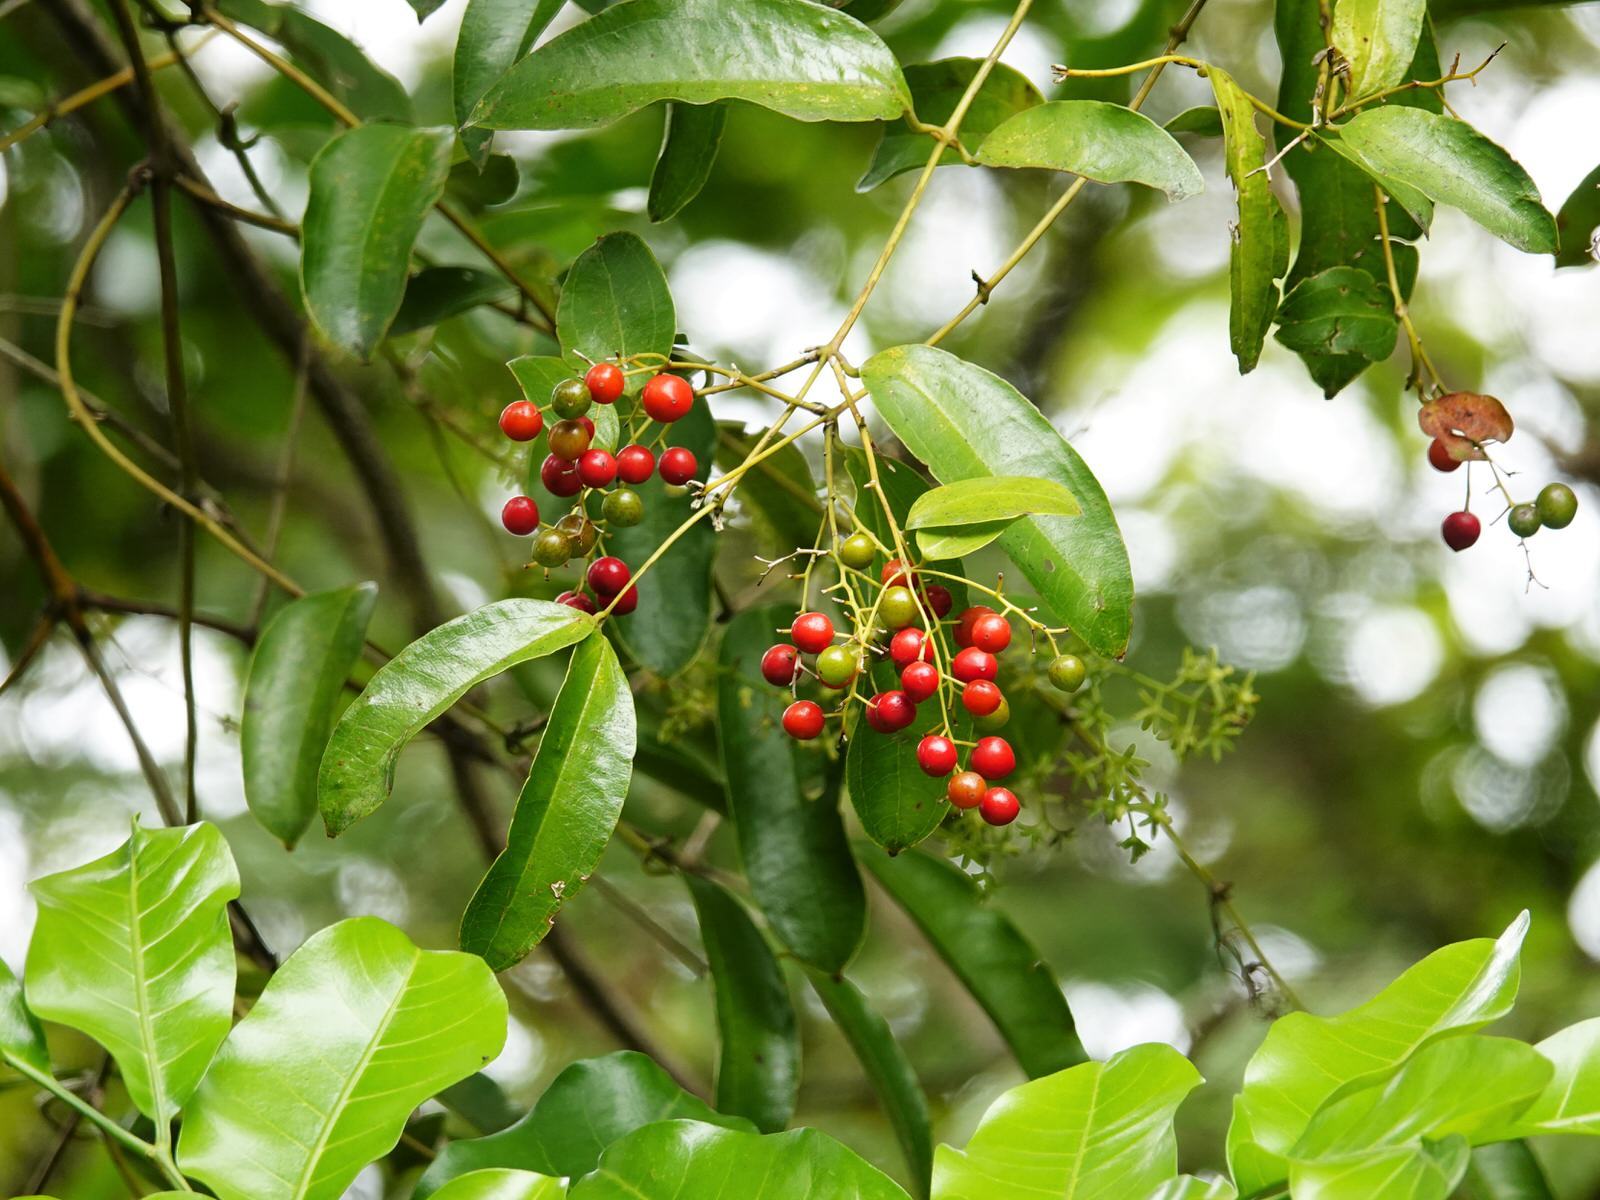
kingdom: Plantae
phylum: Tracheophyta
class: Liliopsida
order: Liliales
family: Ripogonaceae
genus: Ripogonum
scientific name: Ripogonum scandens
